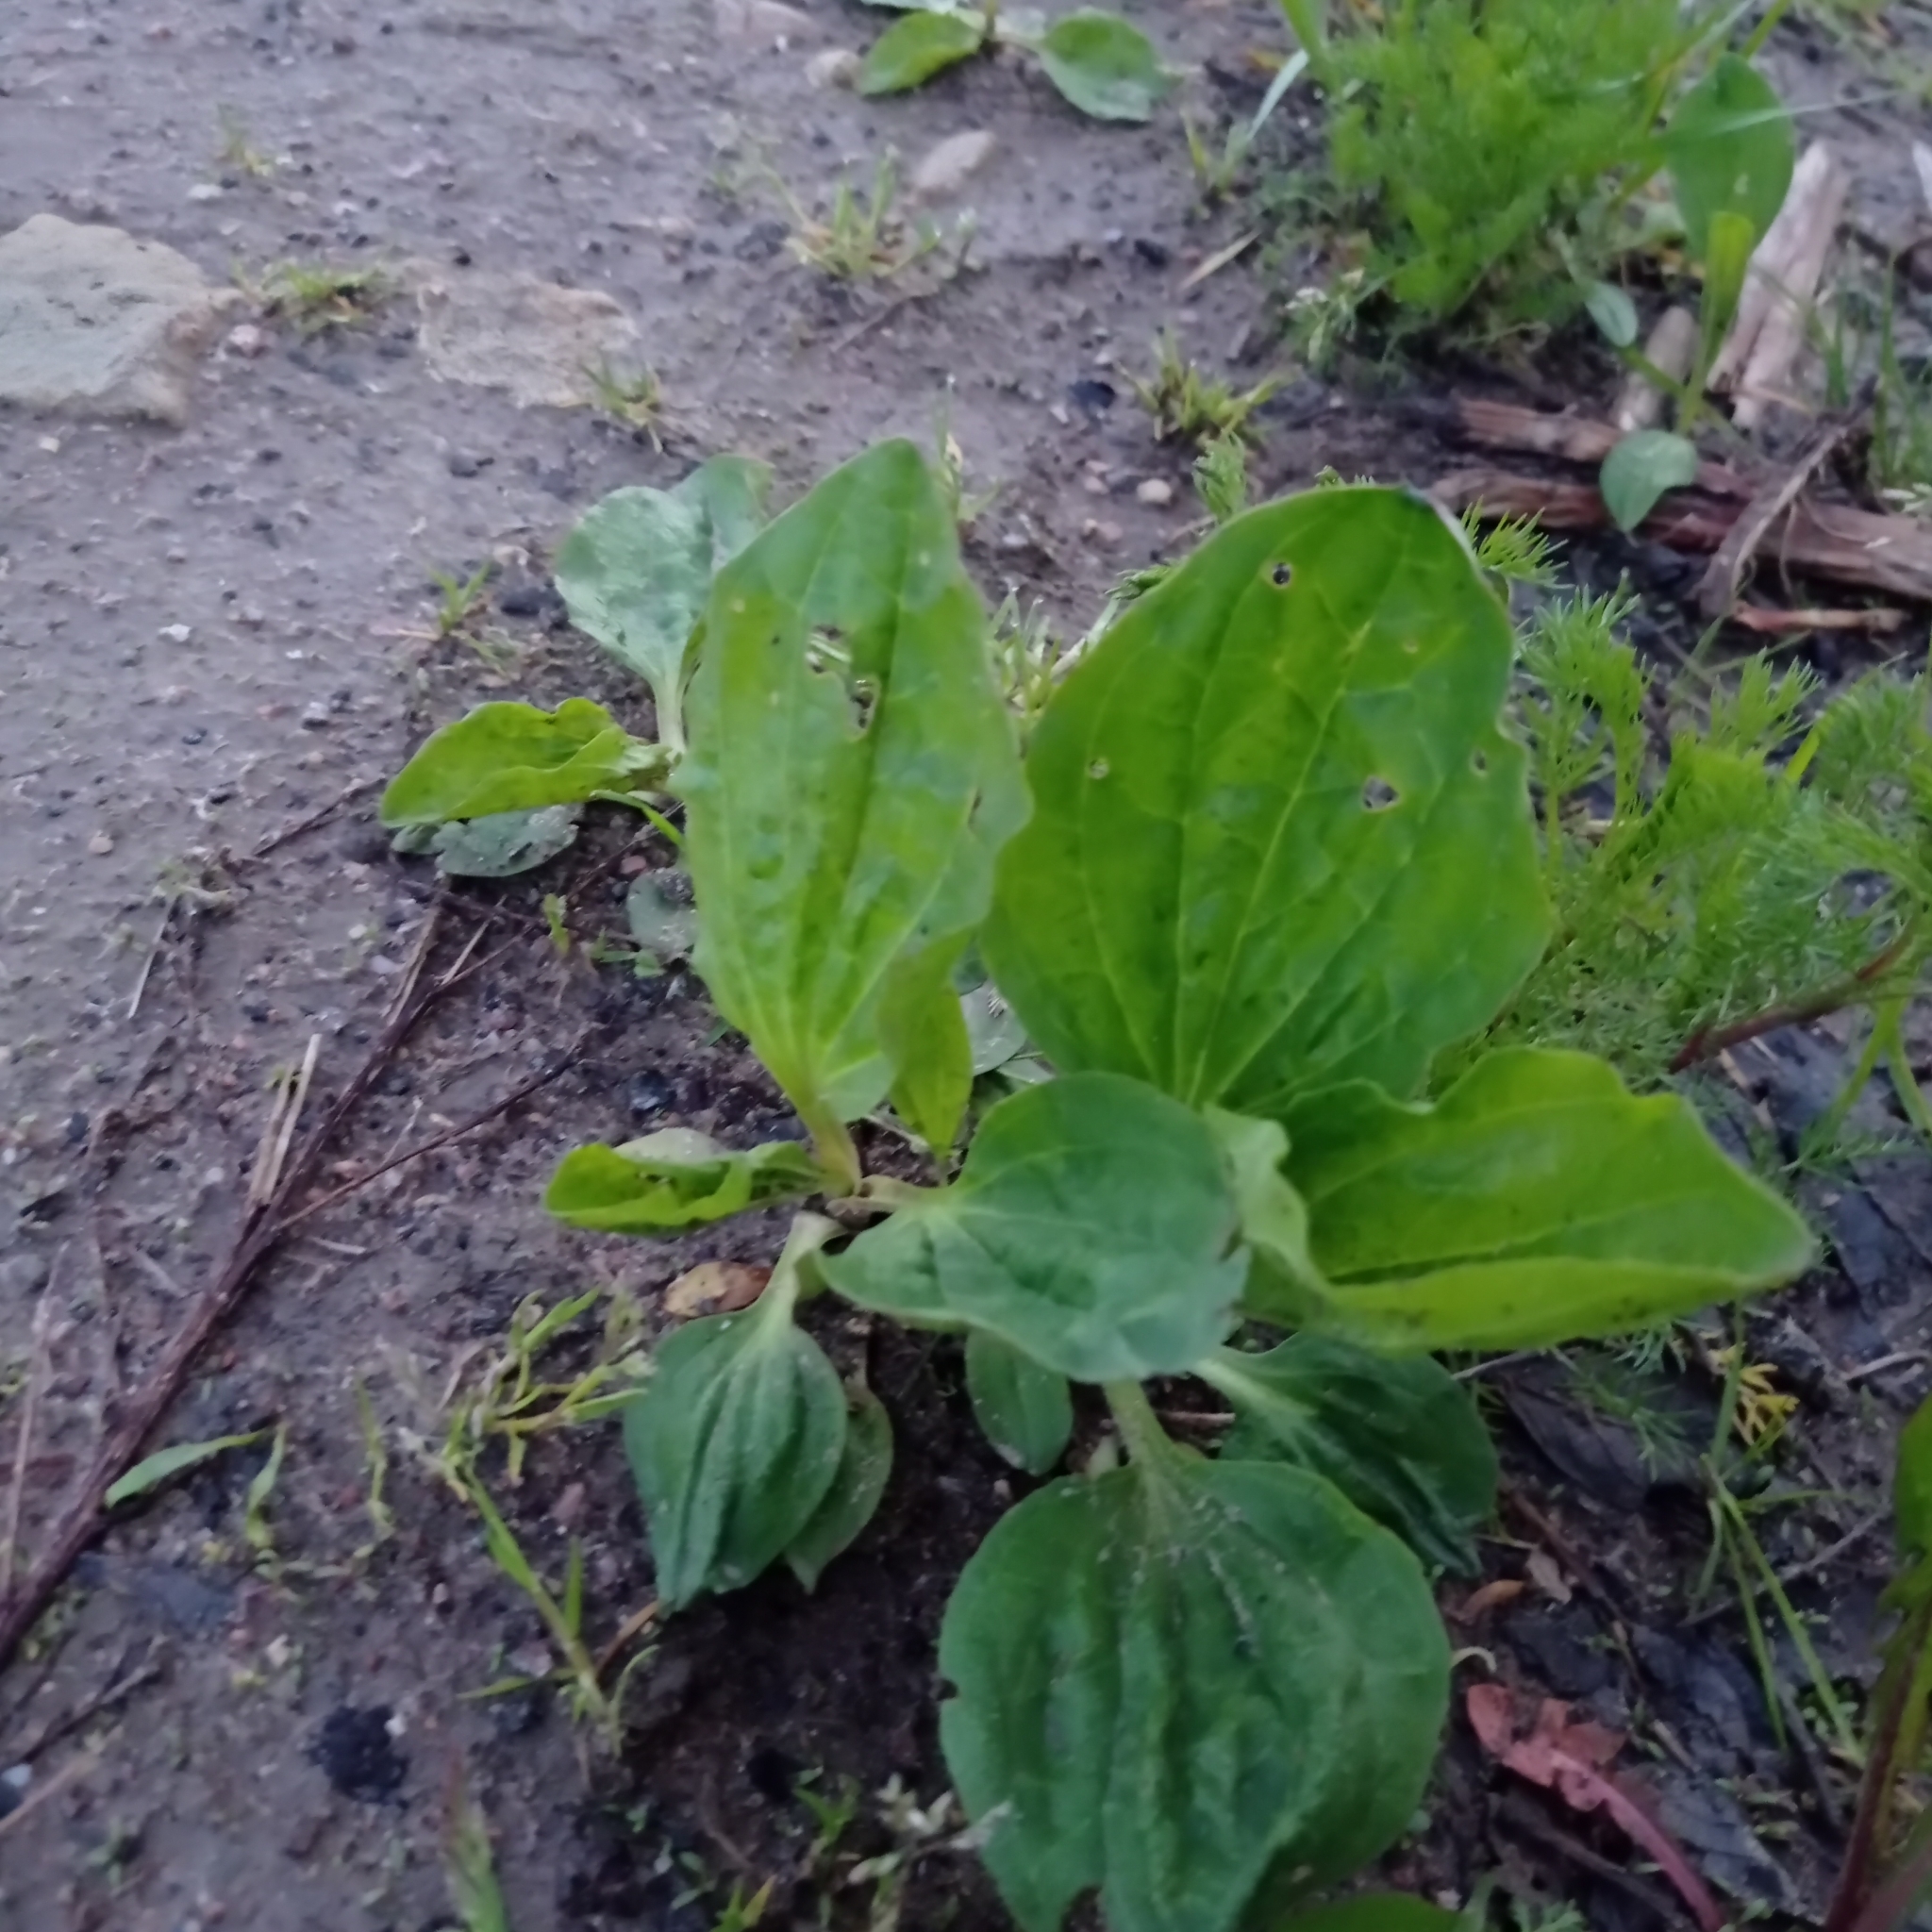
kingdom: Plantae
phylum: Tracheophyta
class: Magnoliopsida
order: Lamiales
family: Plantaginaceae
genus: Plantago
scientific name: Plantago major
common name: Common plantain
